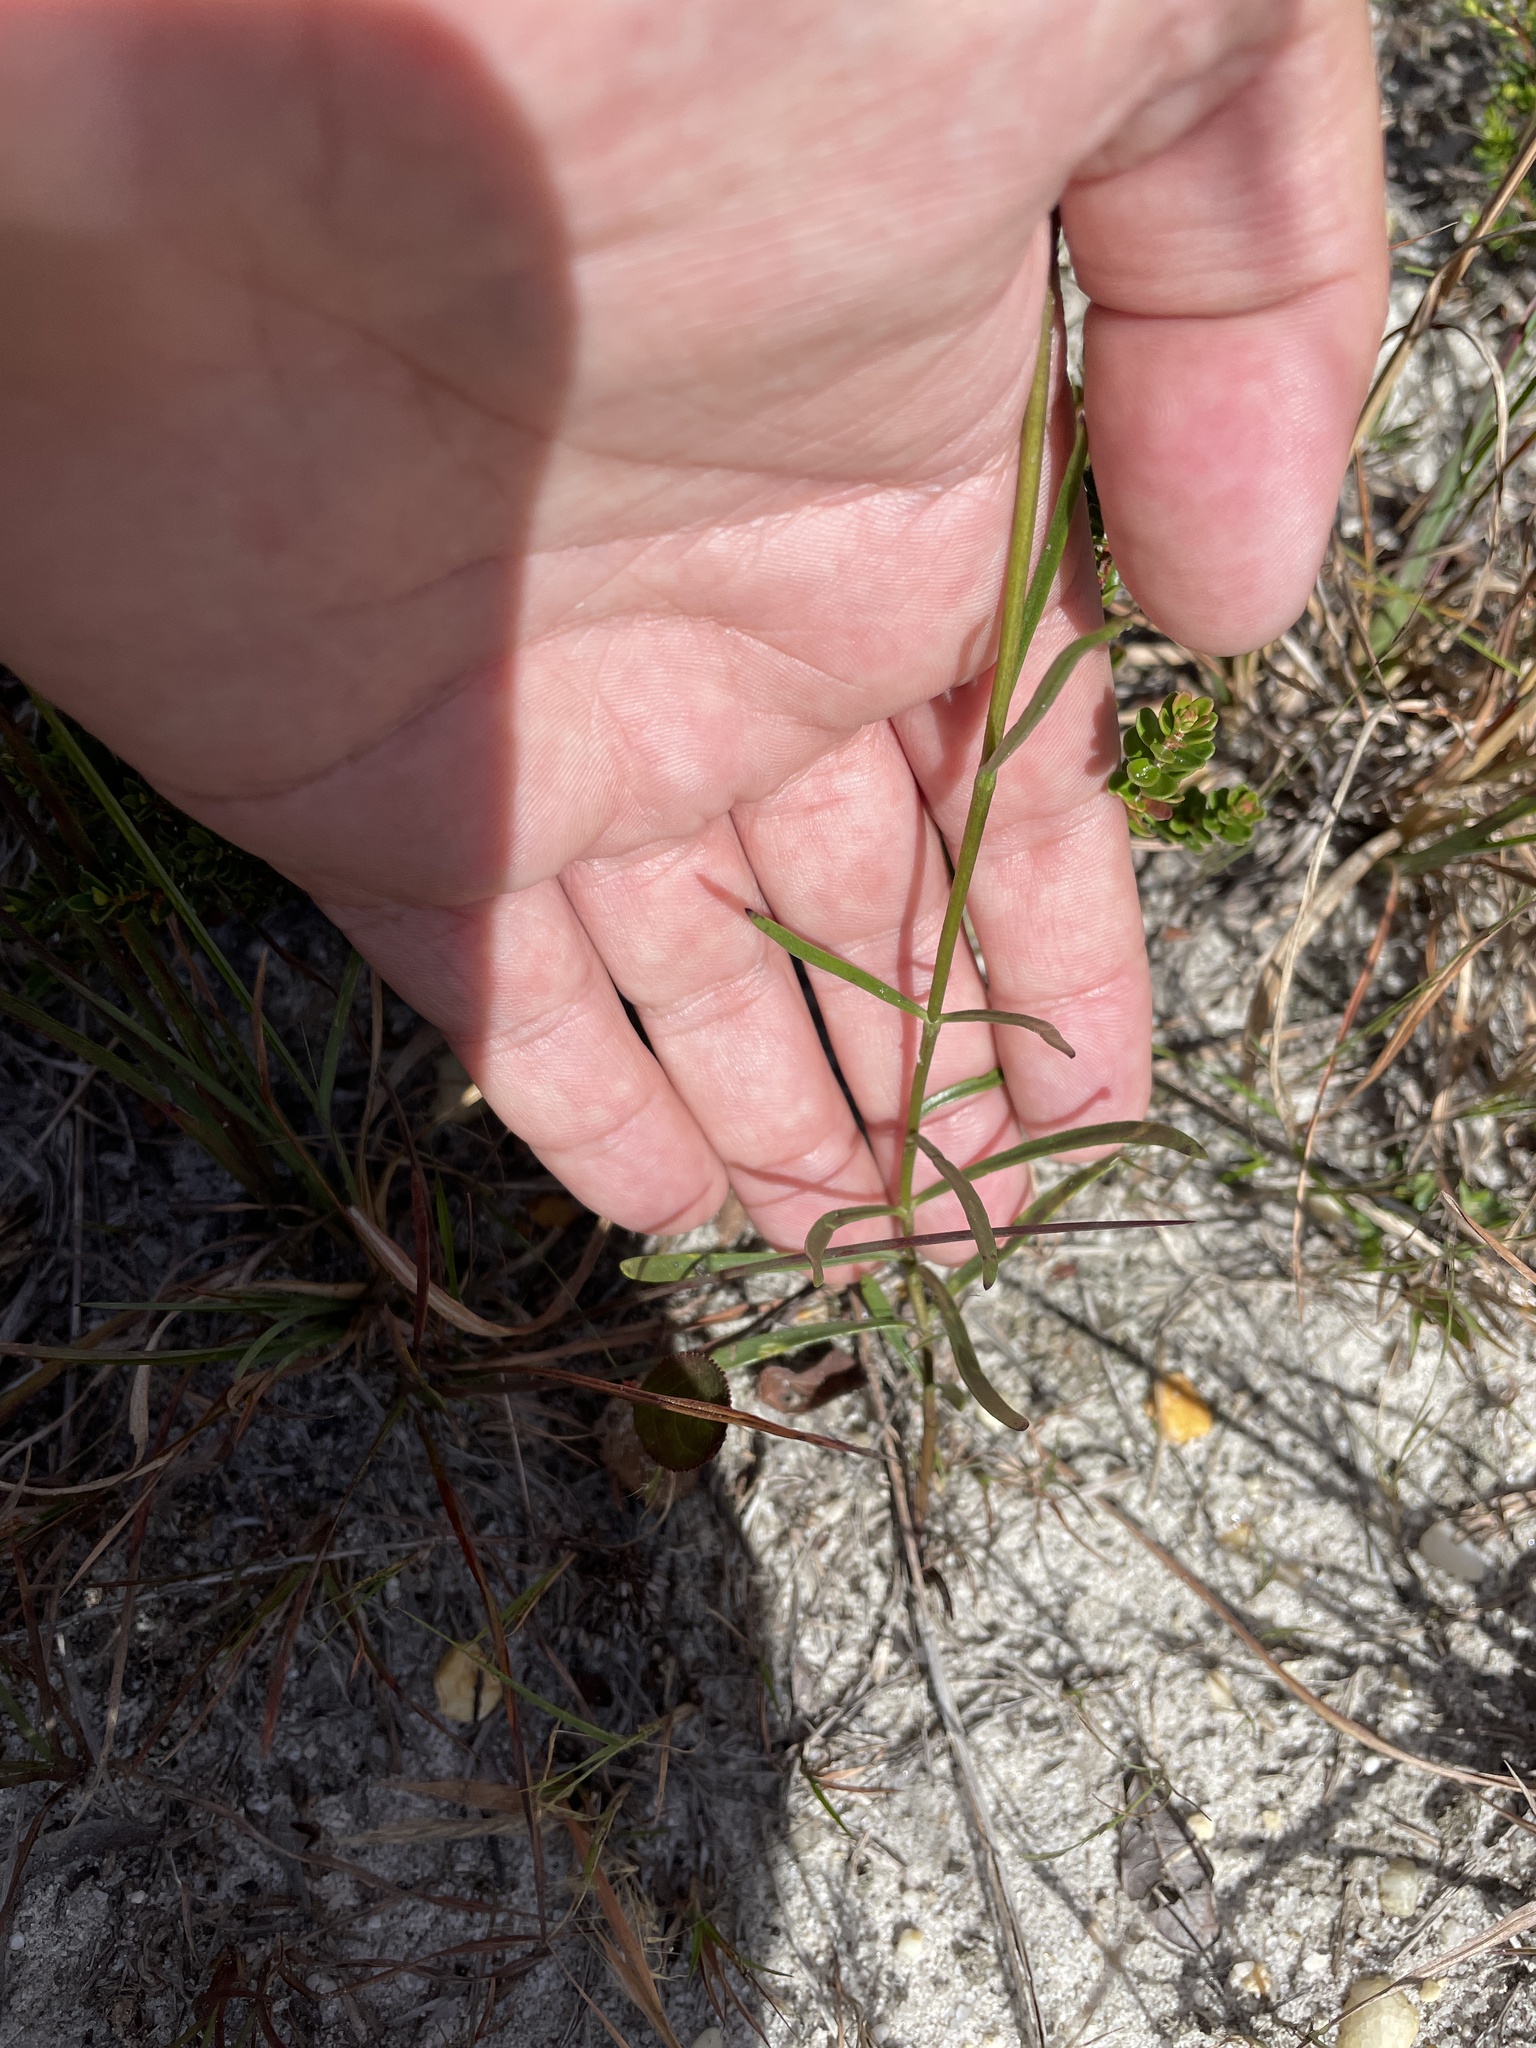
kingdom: Plantae
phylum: Tracheophyta
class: Magnoliopsida
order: Gentianales
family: Gentianaceae
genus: Gentiana
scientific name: Gentiana autumnalis
